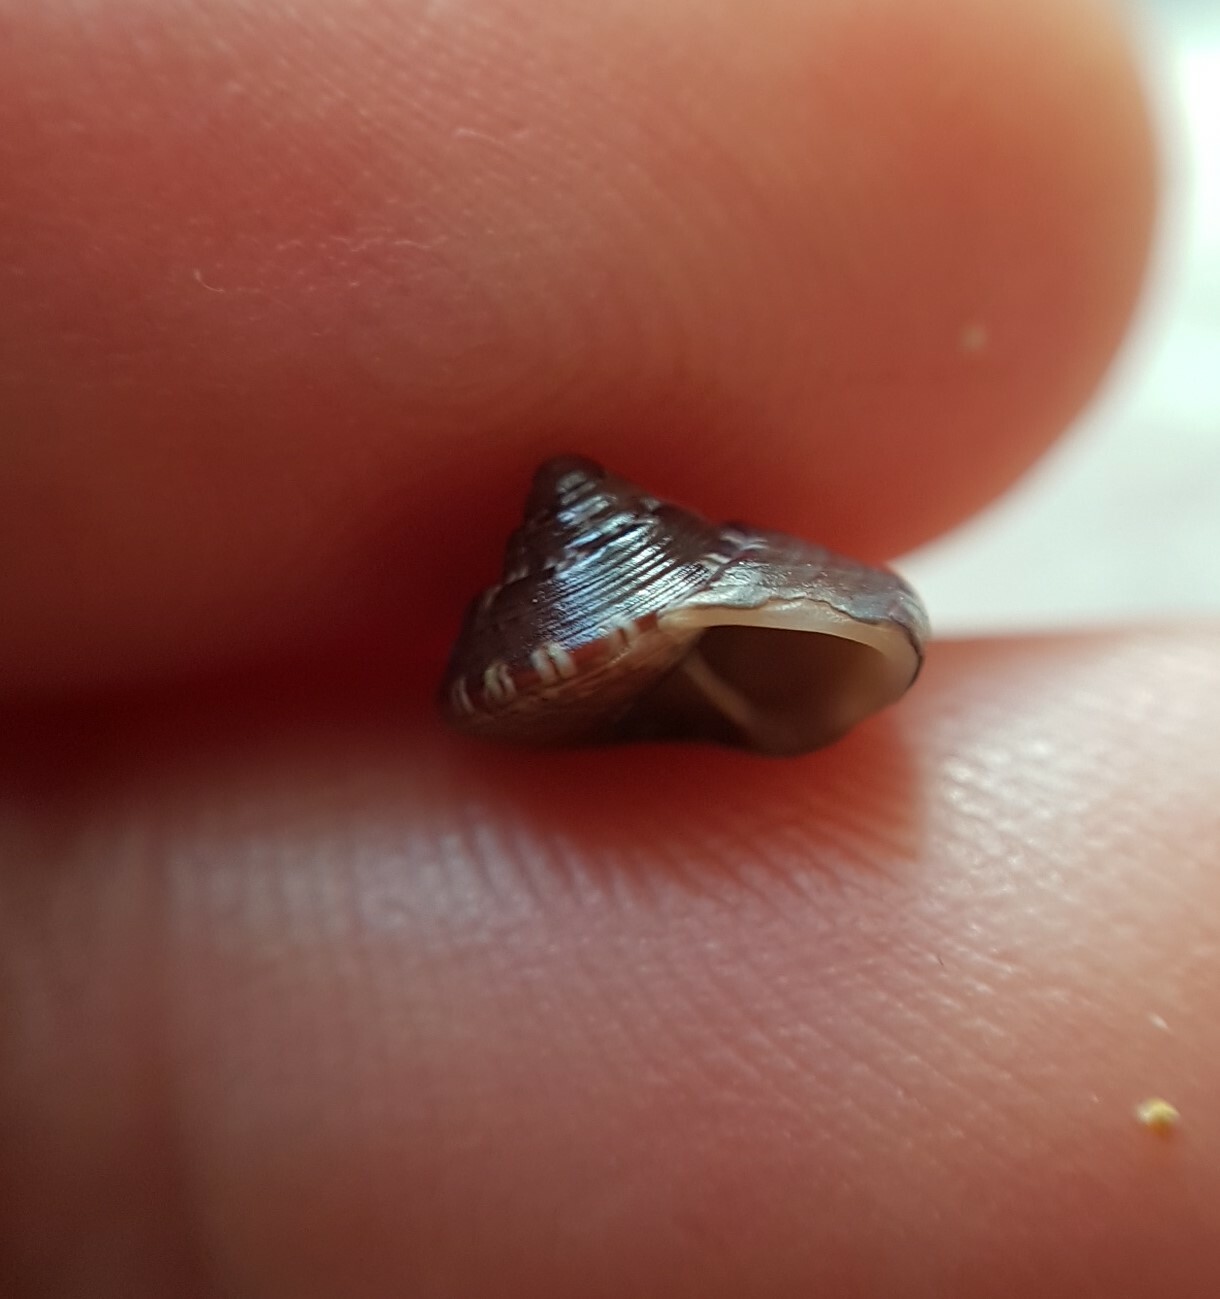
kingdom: Animalia
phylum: Mollusca
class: Gastropoda
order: Trochida
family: Trochidae
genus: Steromphala
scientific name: Steromphala umbilicaris
